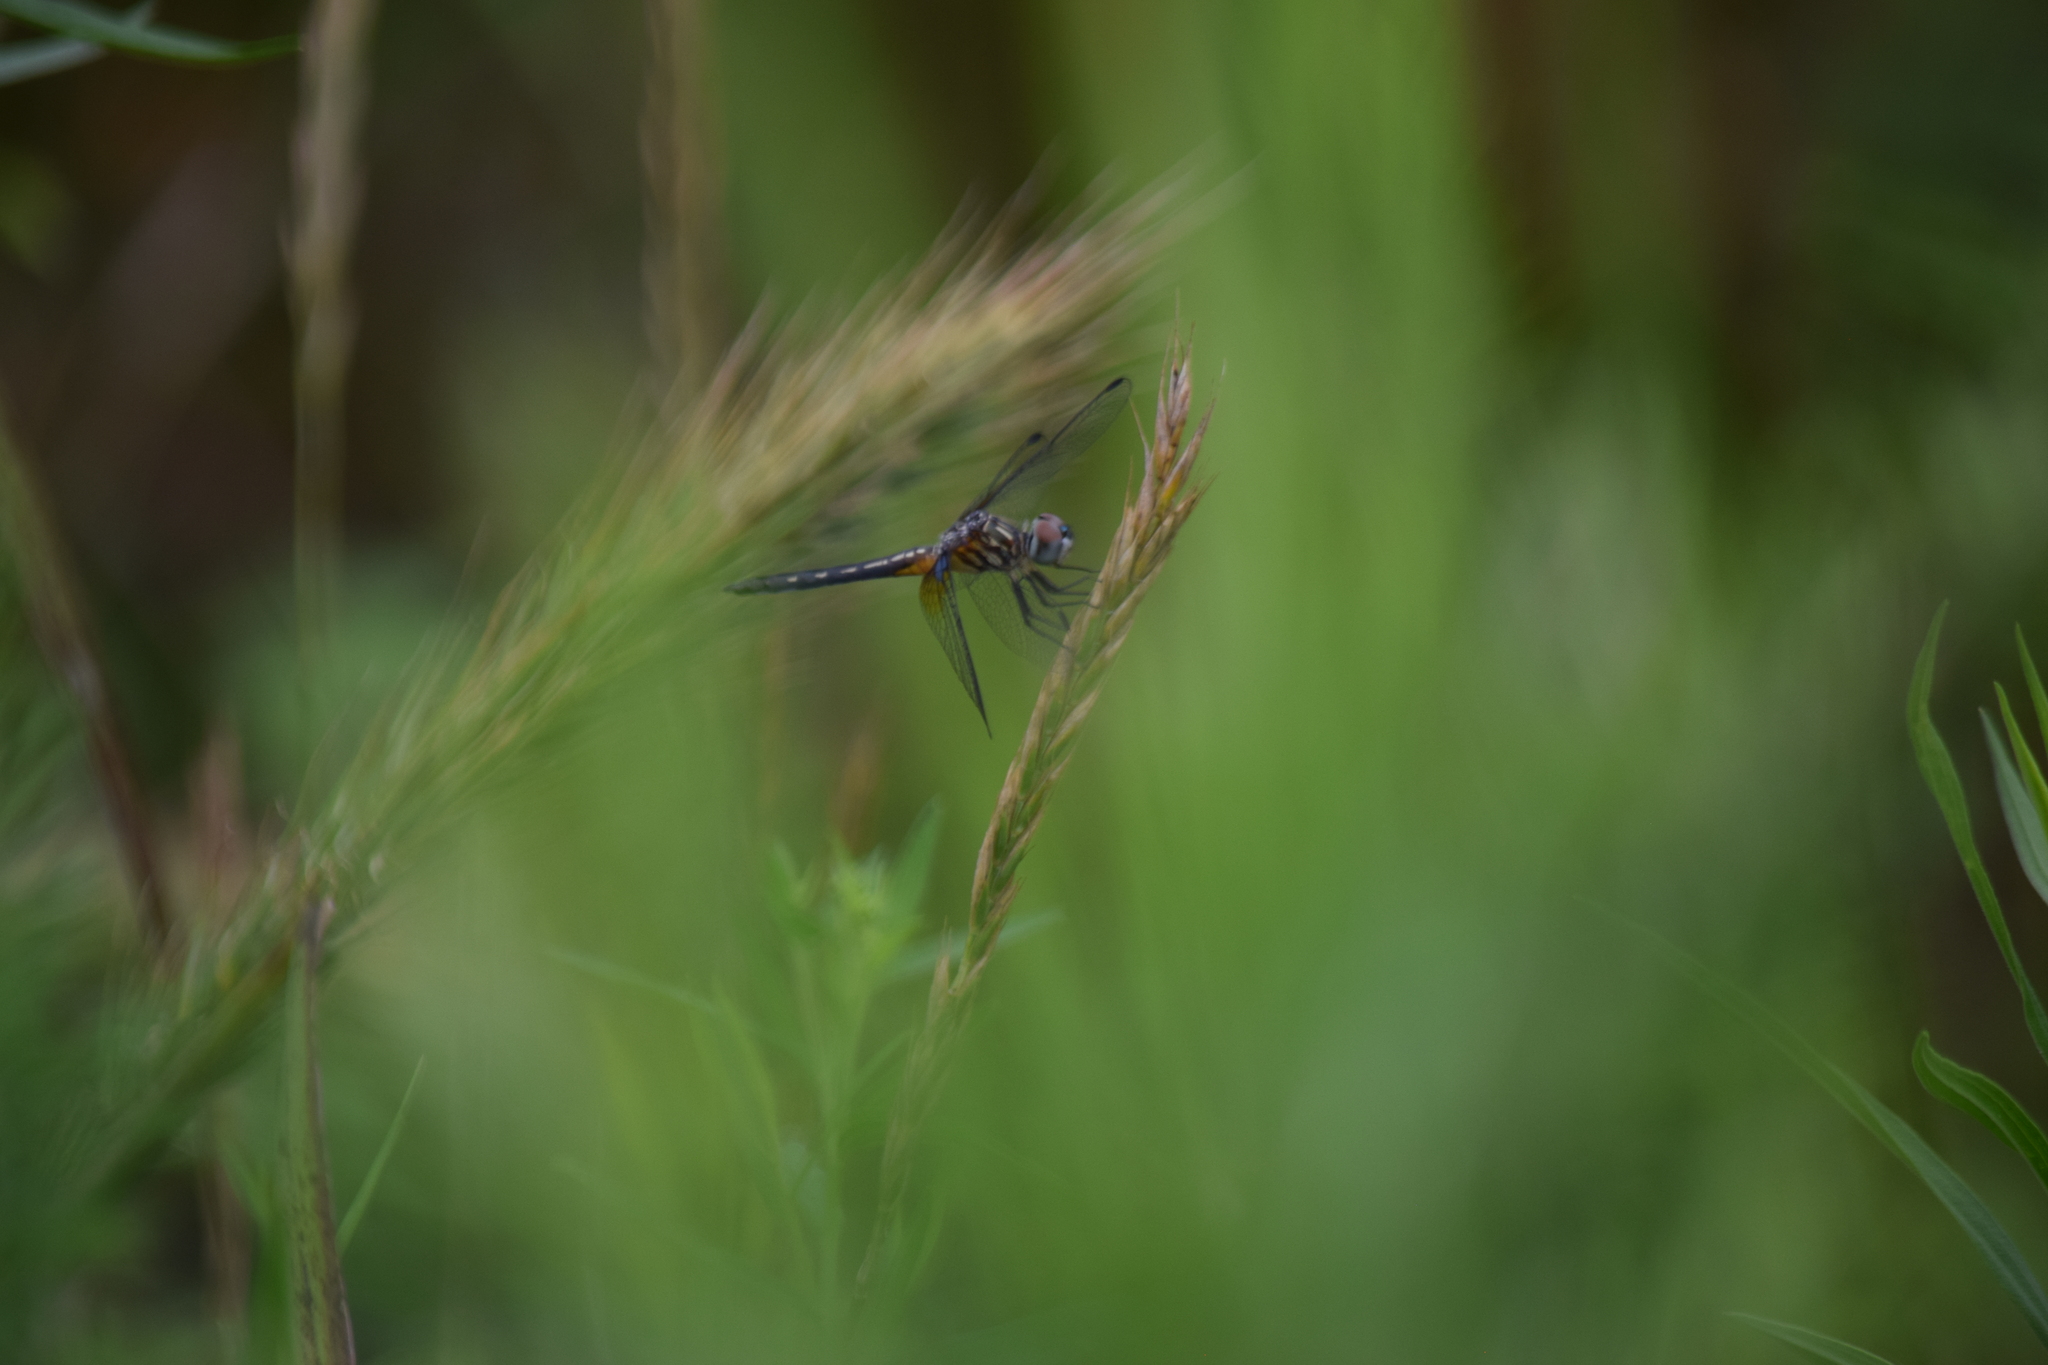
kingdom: Animalia
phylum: Arthropoda
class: Insecta
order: Odonata
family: Libellulidae
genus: Pachydiplax
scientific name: Pachydiplax longipennis
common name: Blue dasher
